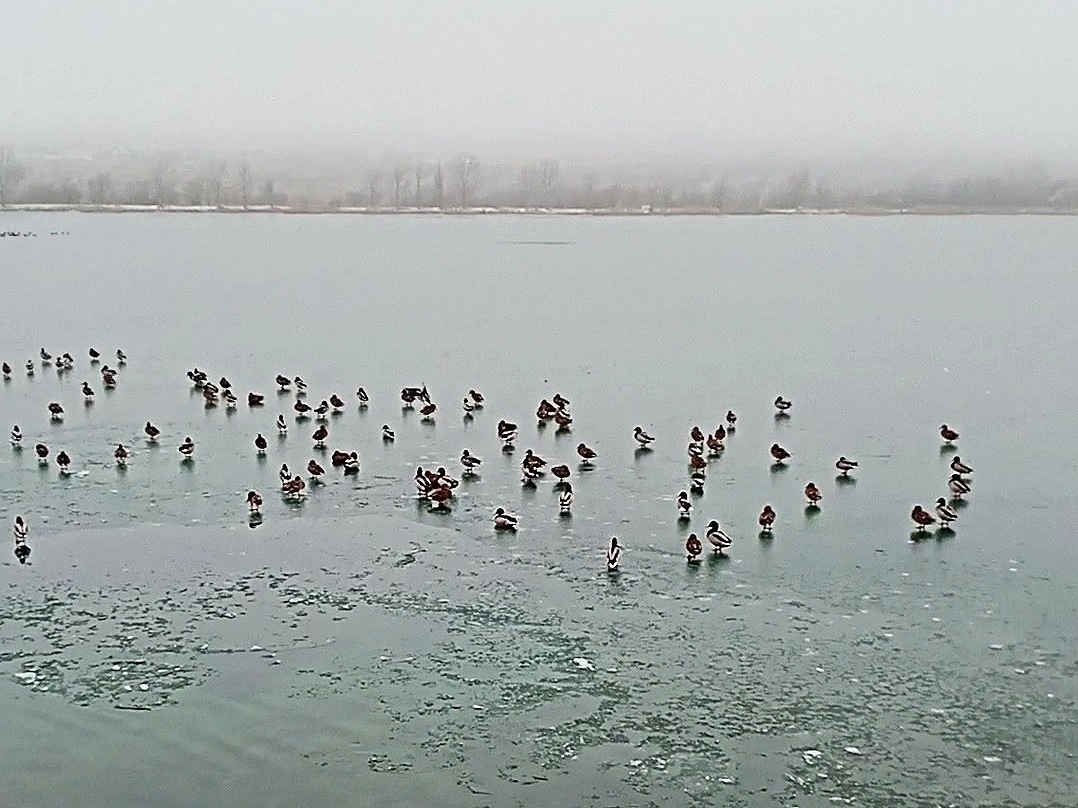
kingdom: Animalia
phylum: Chordata
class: Aves
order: Anseriformes
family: Anatidae
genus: Anas
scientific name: Anas platyrhynchos
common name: Mallard
